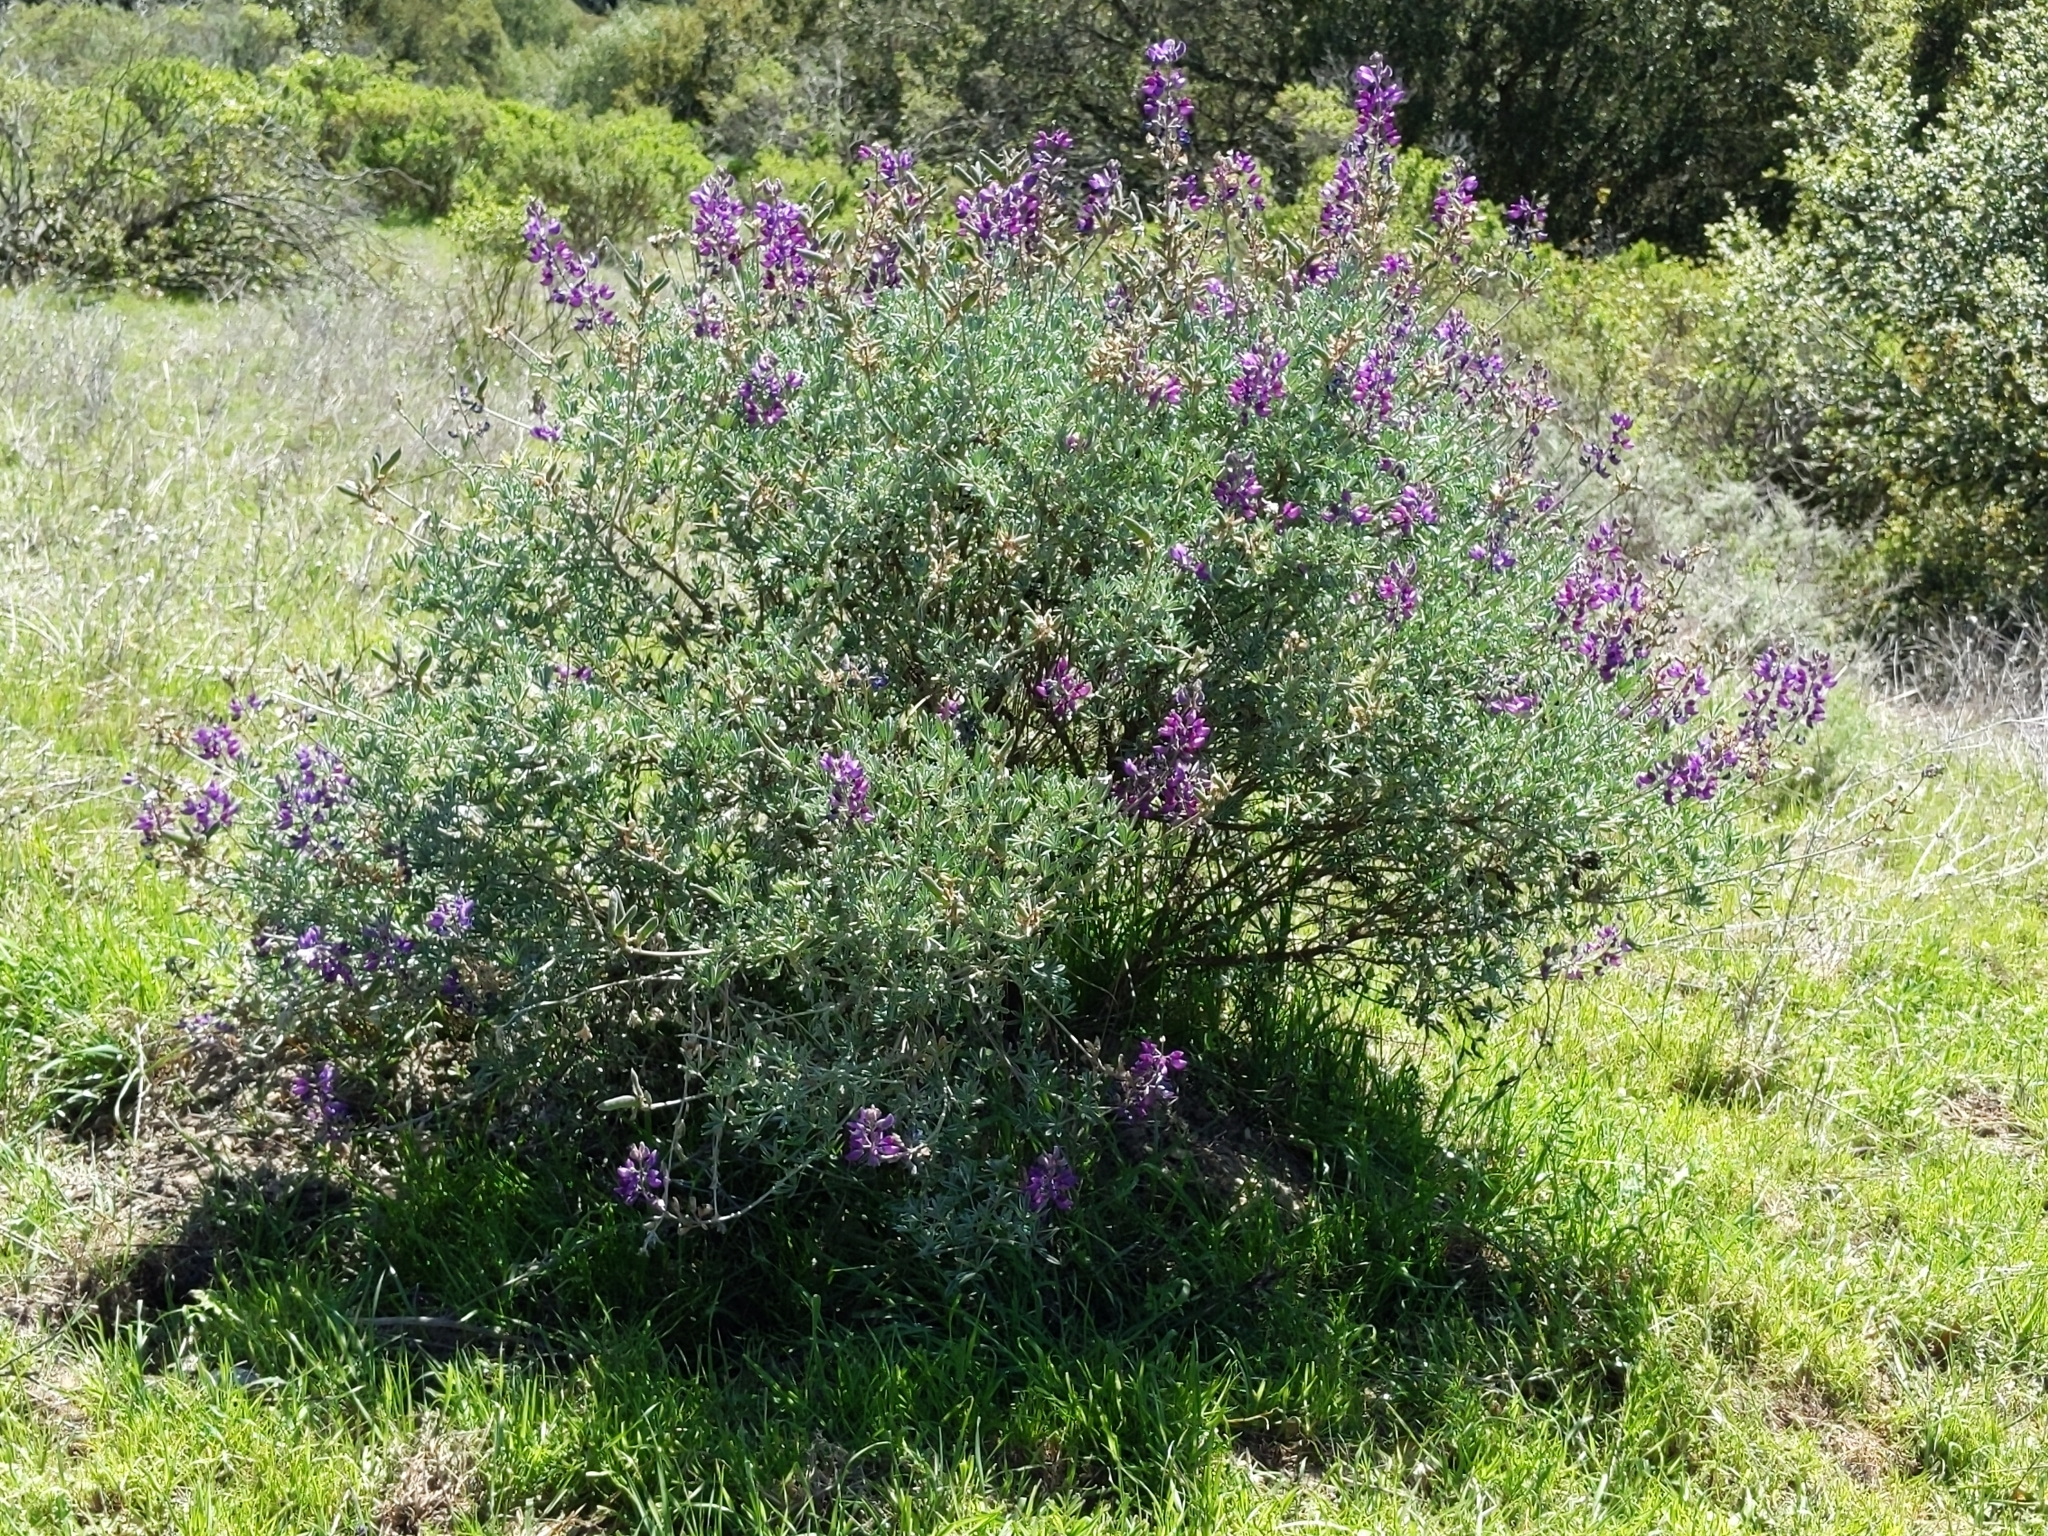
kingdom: Plantae
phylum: Tracheophyta
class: Magnoliopsida
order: Fabales
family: Fabaceae
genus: Lupinus
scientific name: Lupinus albifrons
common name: Foothill lupine
